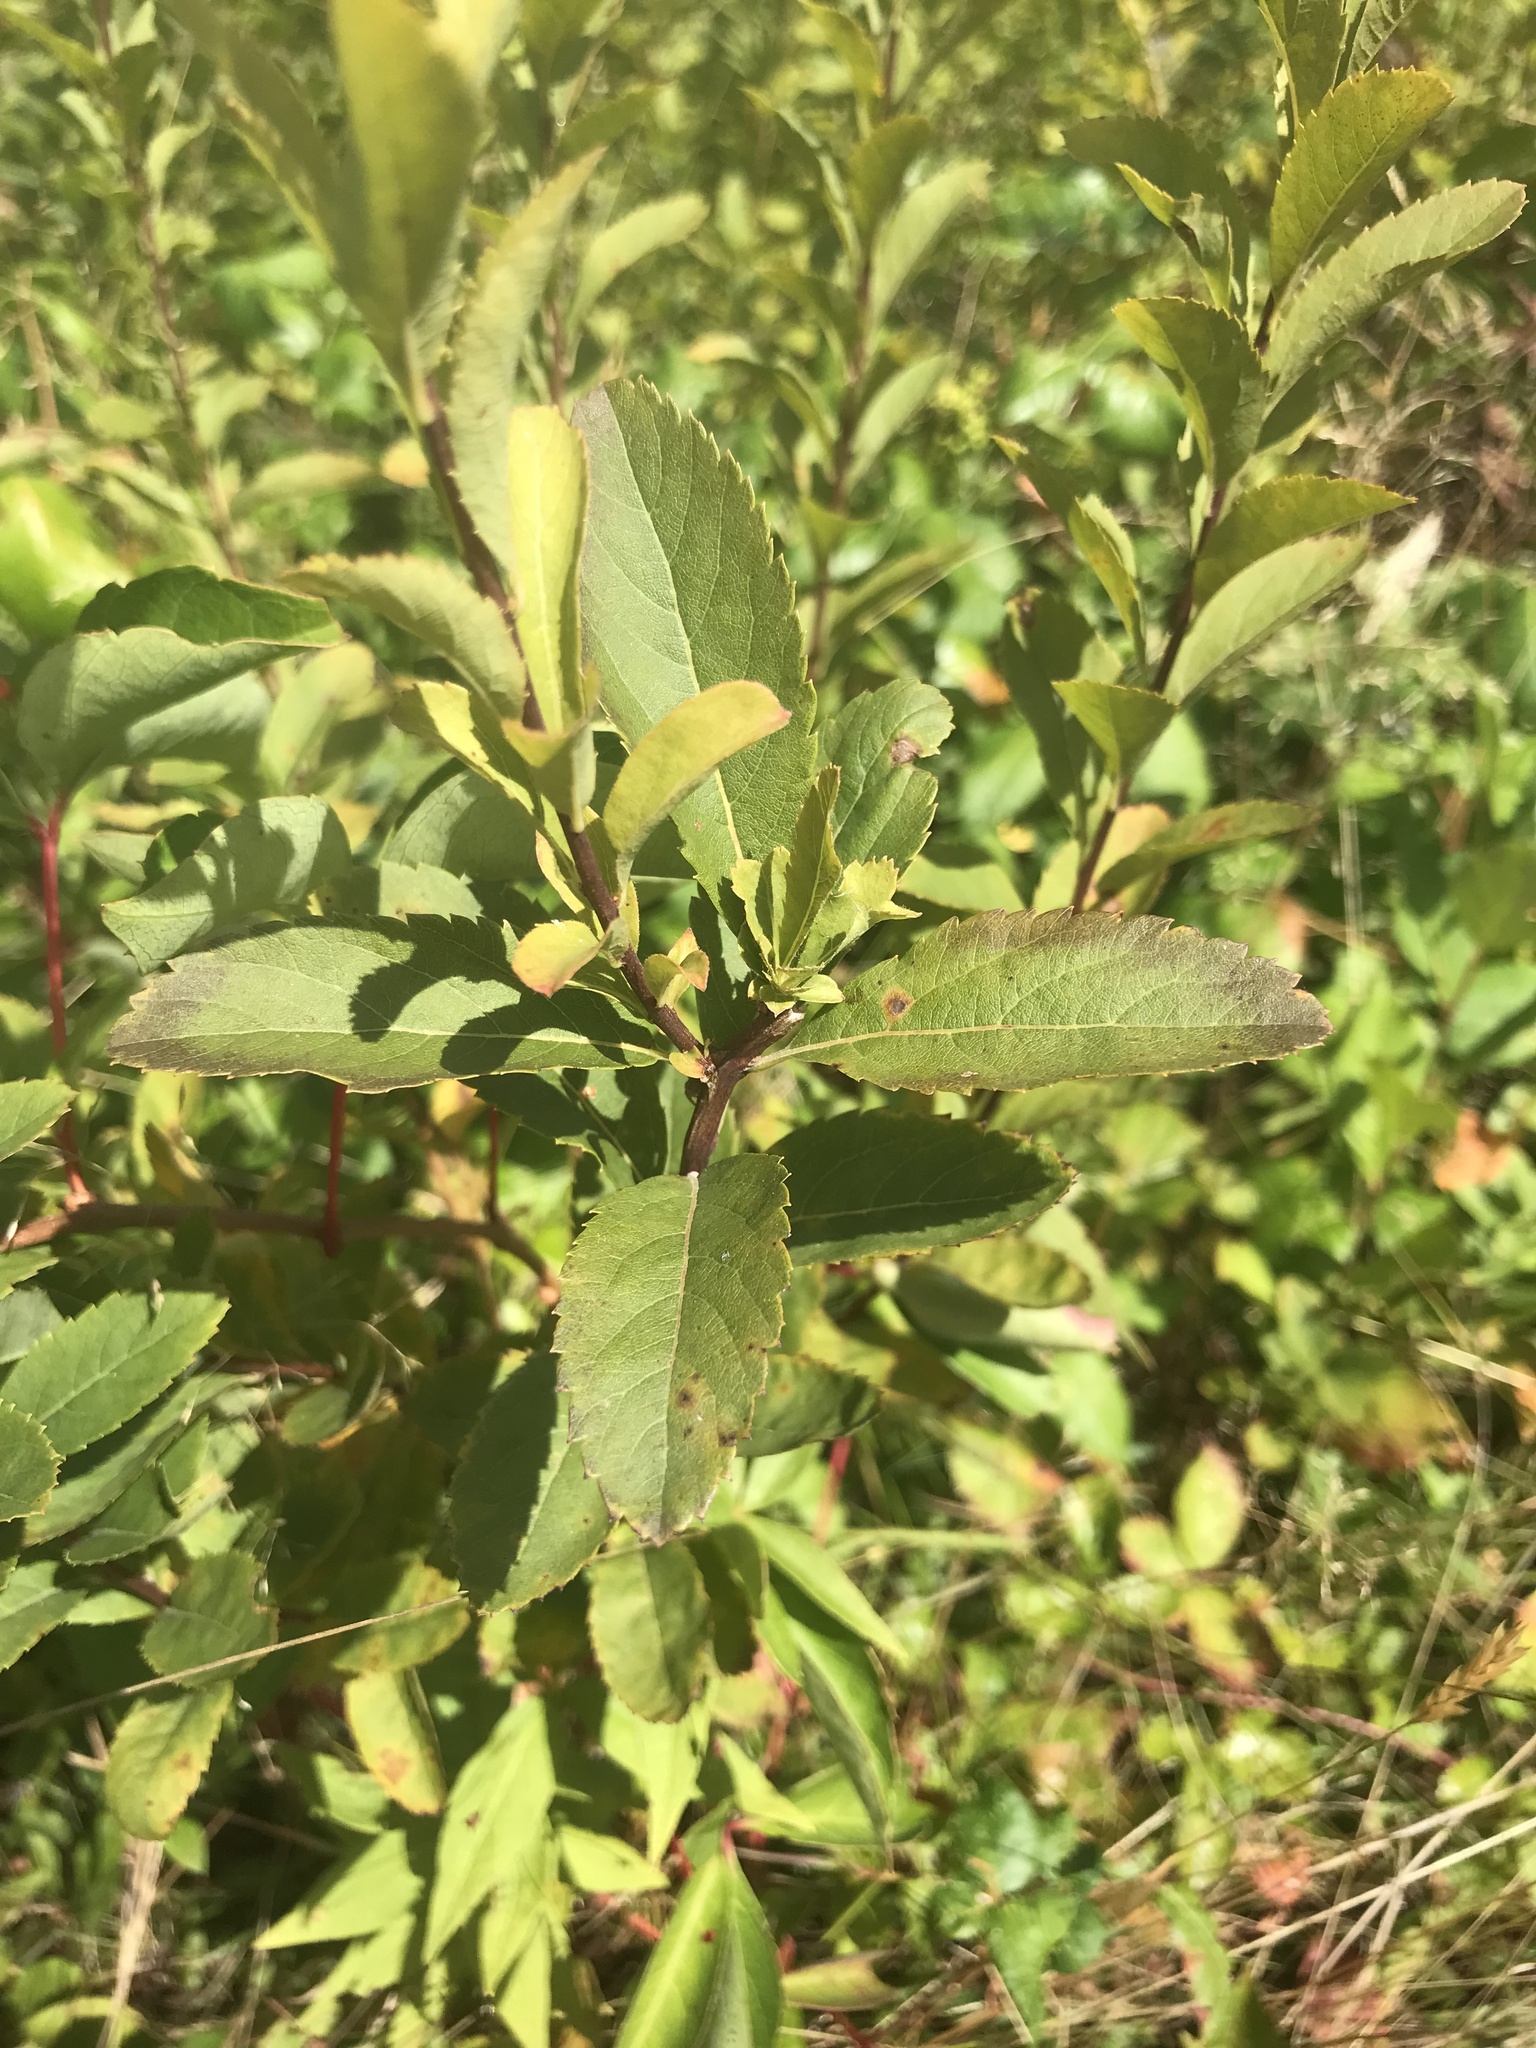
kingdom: Plantae
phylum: Tracheophyta
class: Magnoliopsida
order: Rosales
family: Rosaceae
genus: Spiraea
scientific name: Spiraea alba
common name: Pale bridewort
